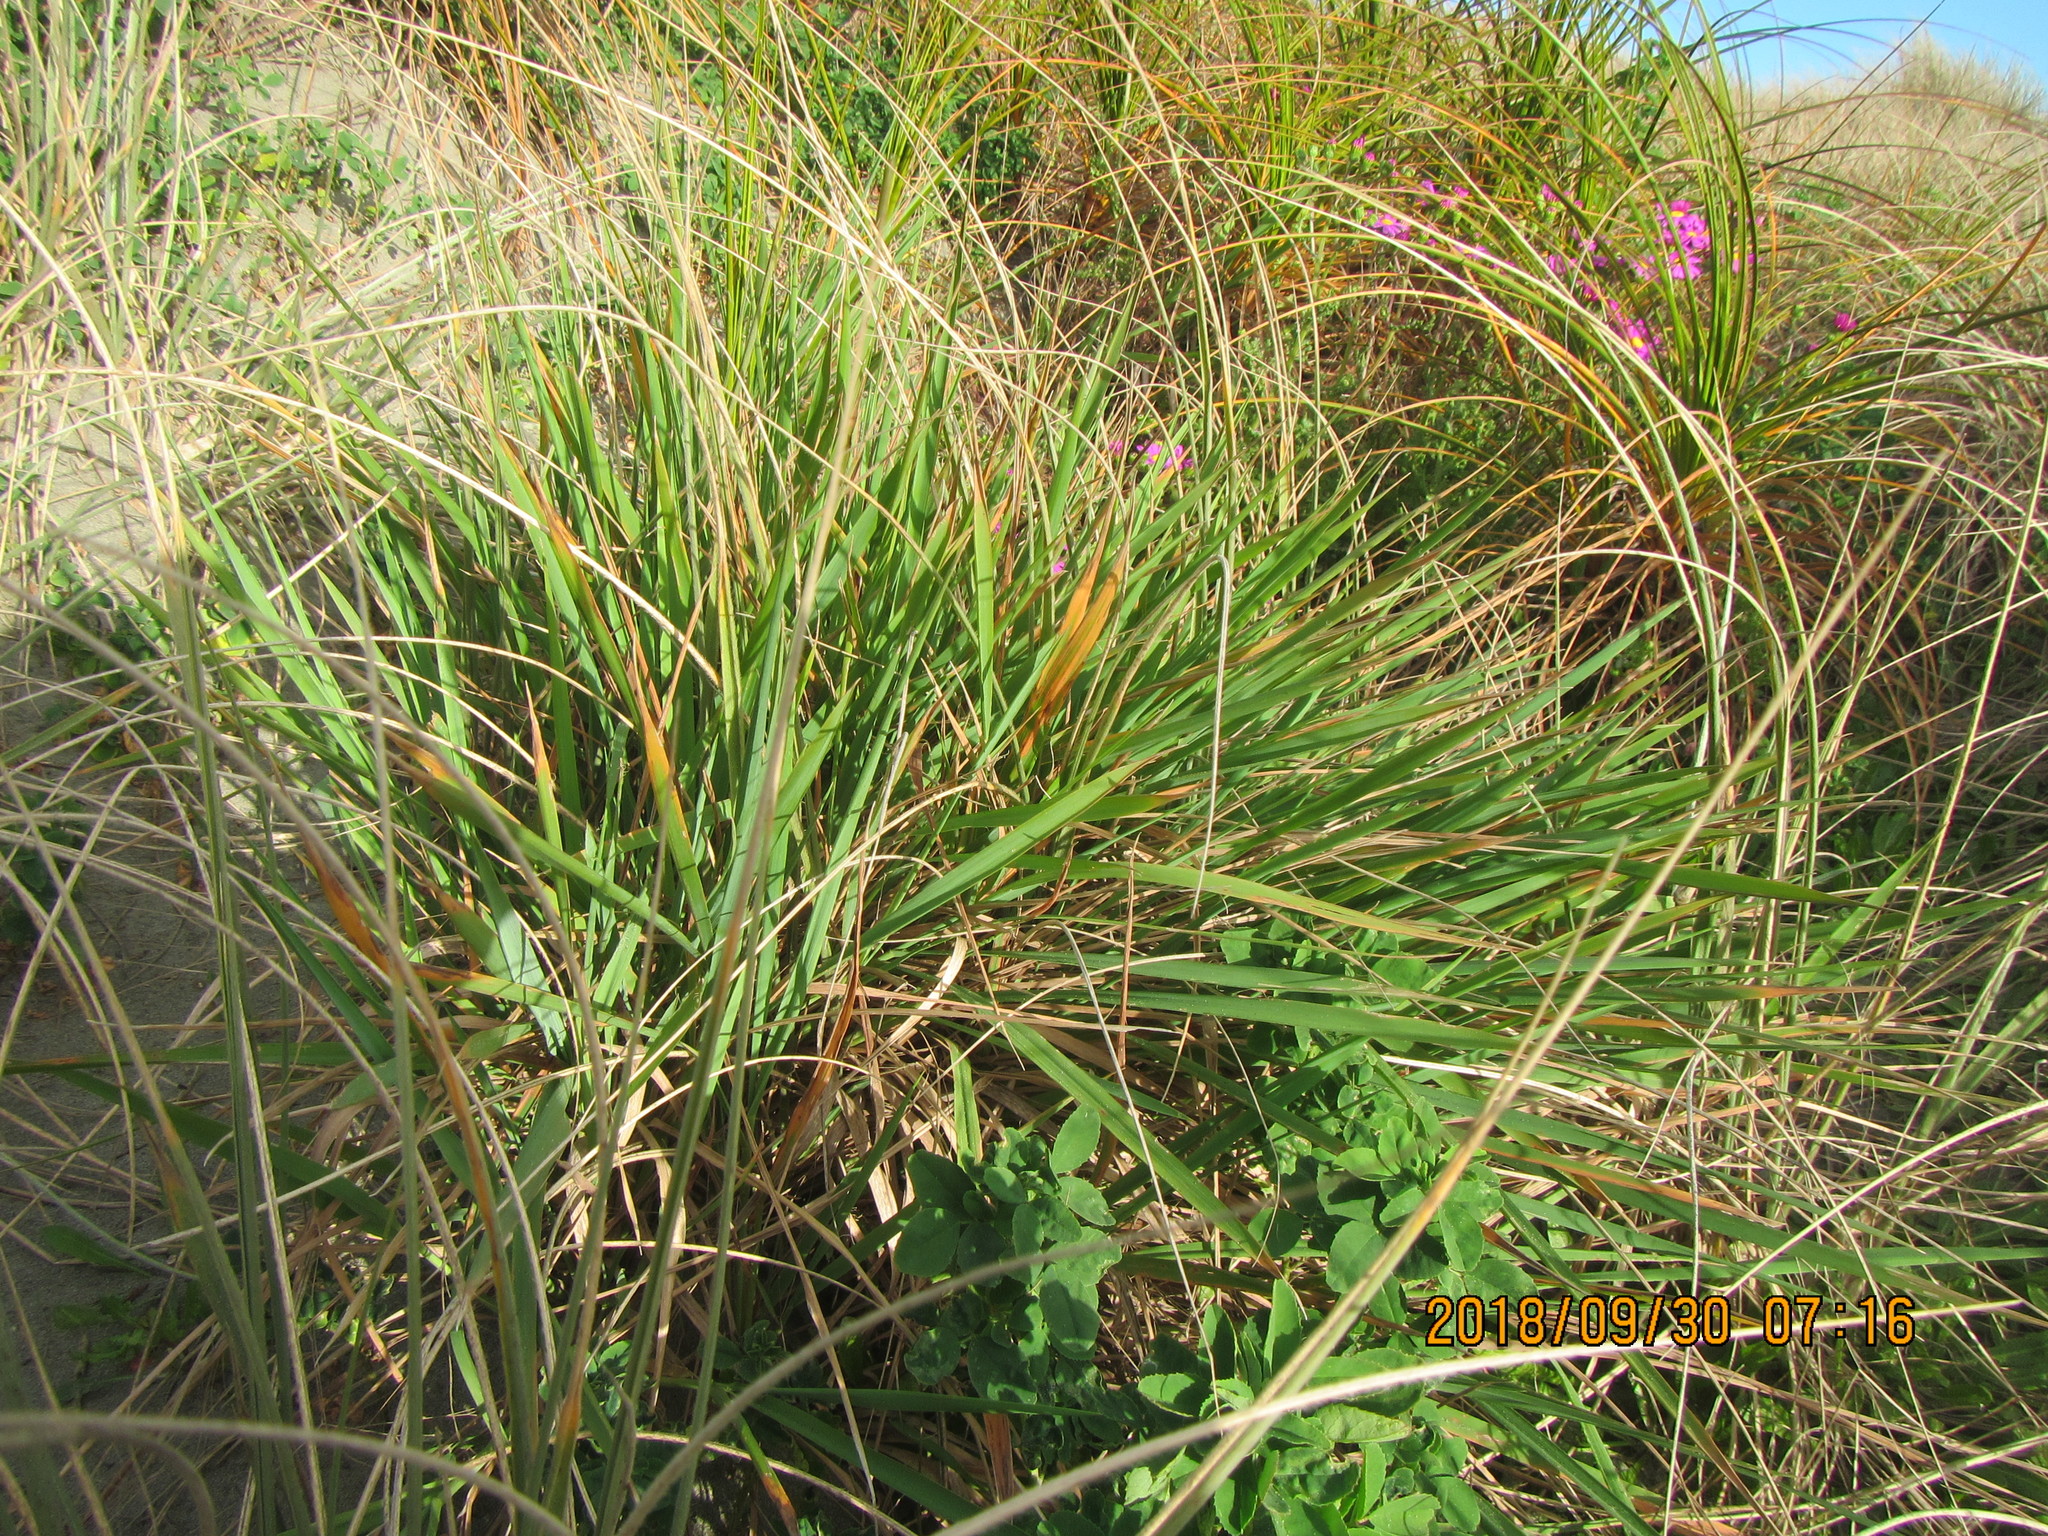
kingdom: Plantae
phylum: Tracheophyta
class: Liliopsida
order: Poales
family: Poaceae
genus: Lachnagrostis
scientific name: Lachnagrostis billardierei
